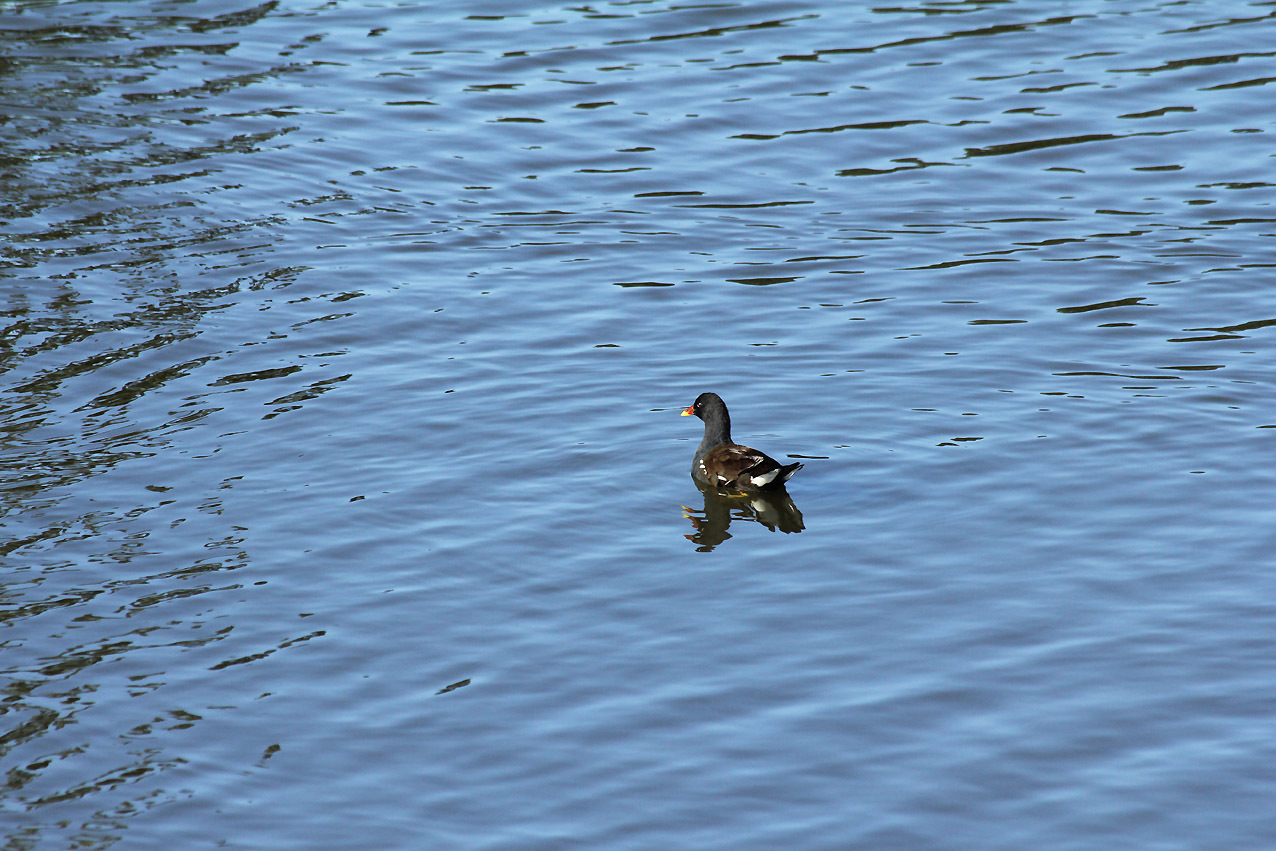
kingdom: Animalia
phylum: Chordata
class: Aves
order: Gruiformes
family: Rallidae
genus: Gallinula
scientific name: Gallinula chloropus
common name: Common moorhen
